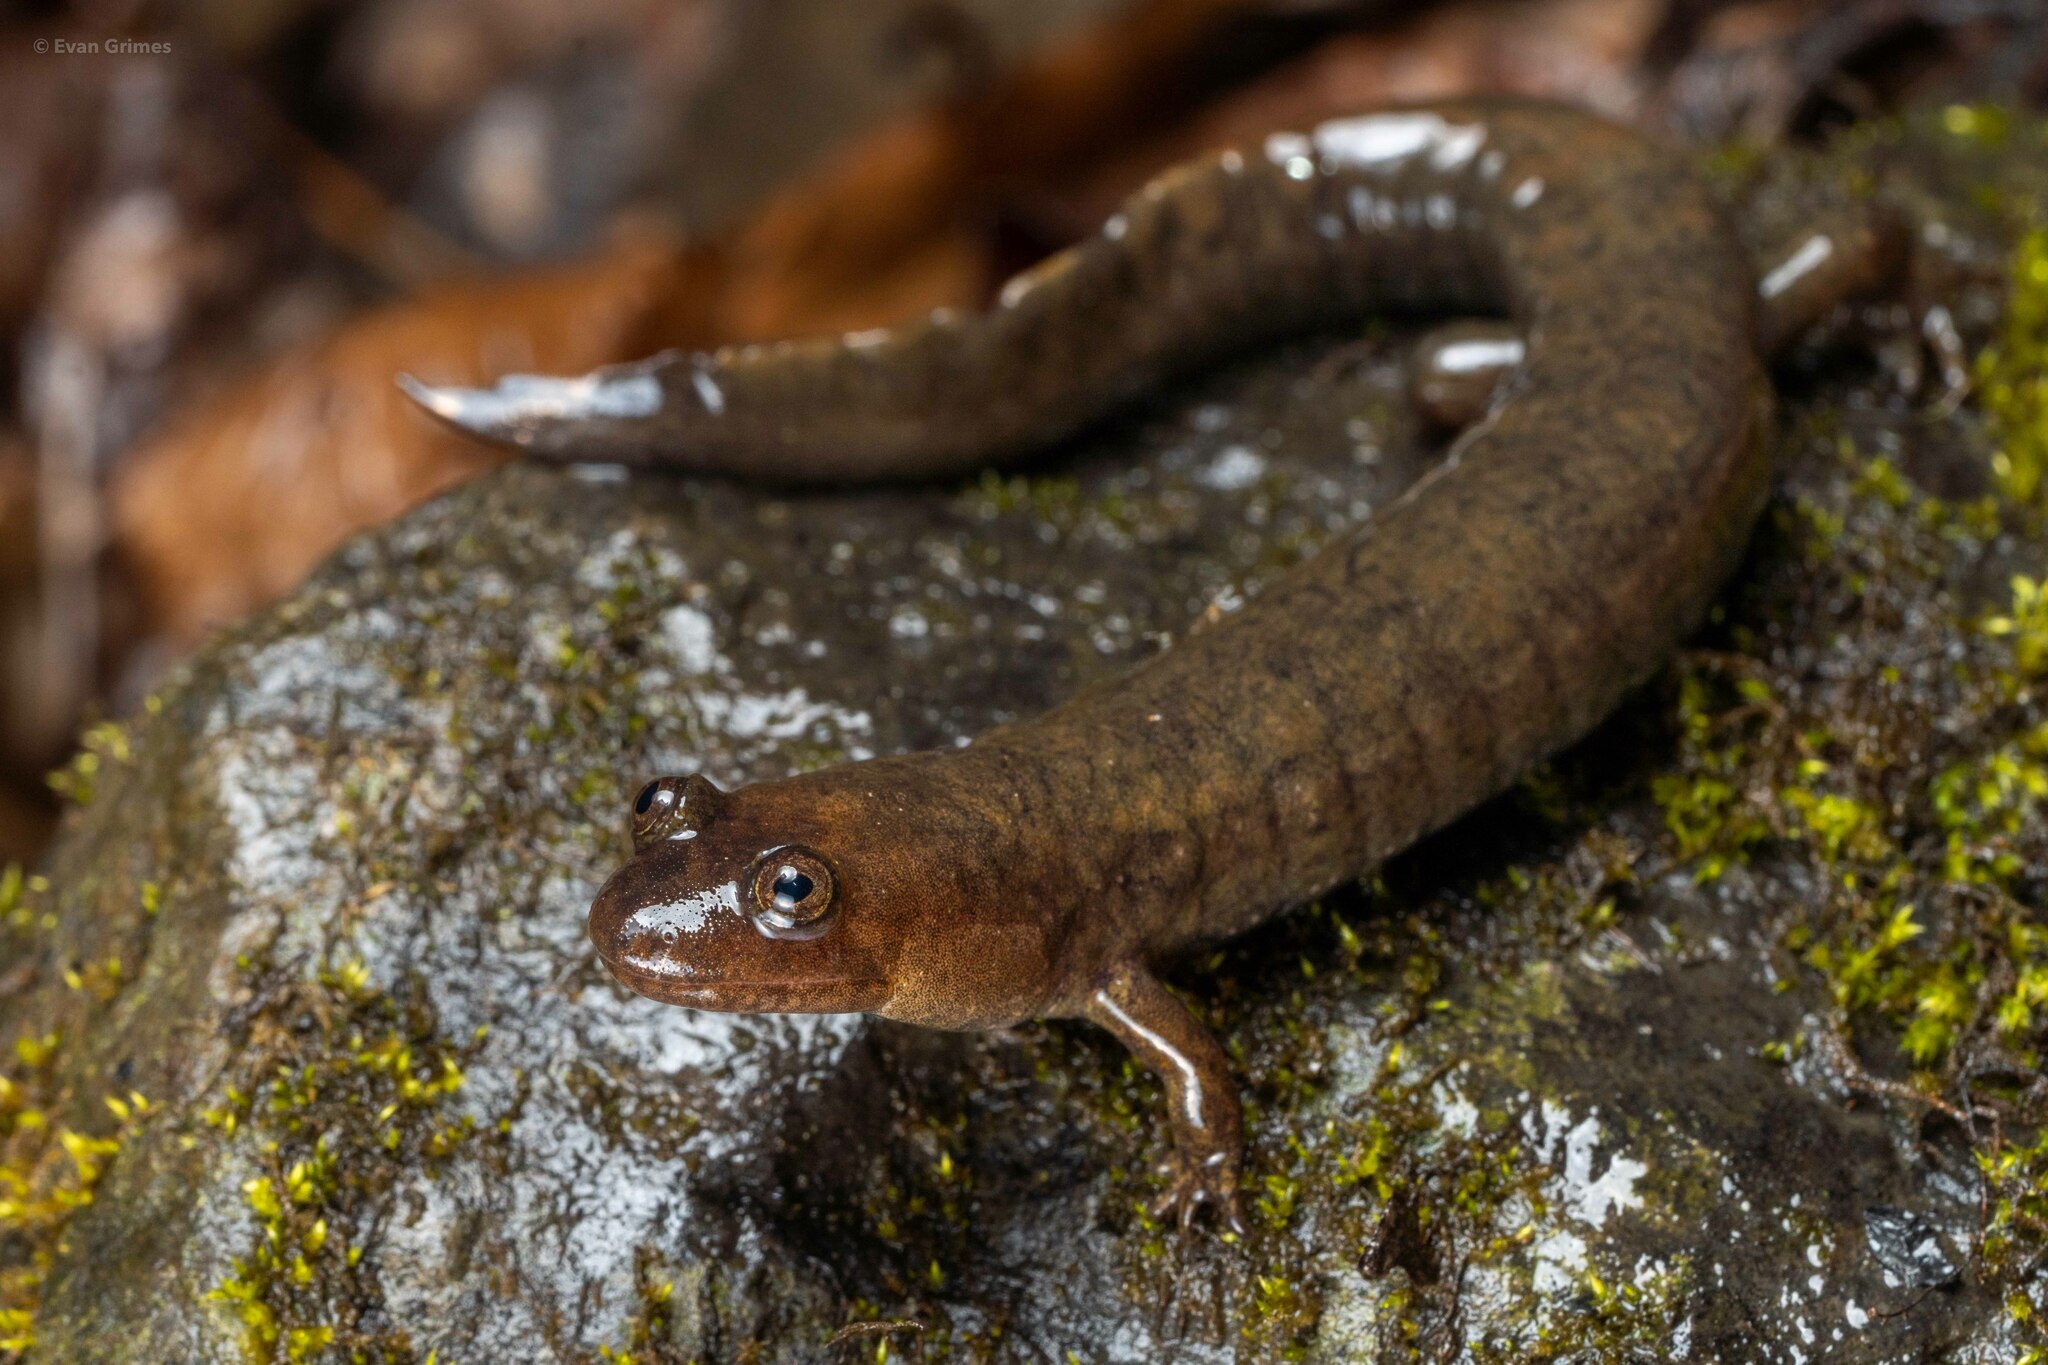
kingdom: Animalia
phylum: Chordata
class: Amphibia
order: Caudata
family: Plethodontidae
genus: Desmognathus
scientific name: Desmognathus
